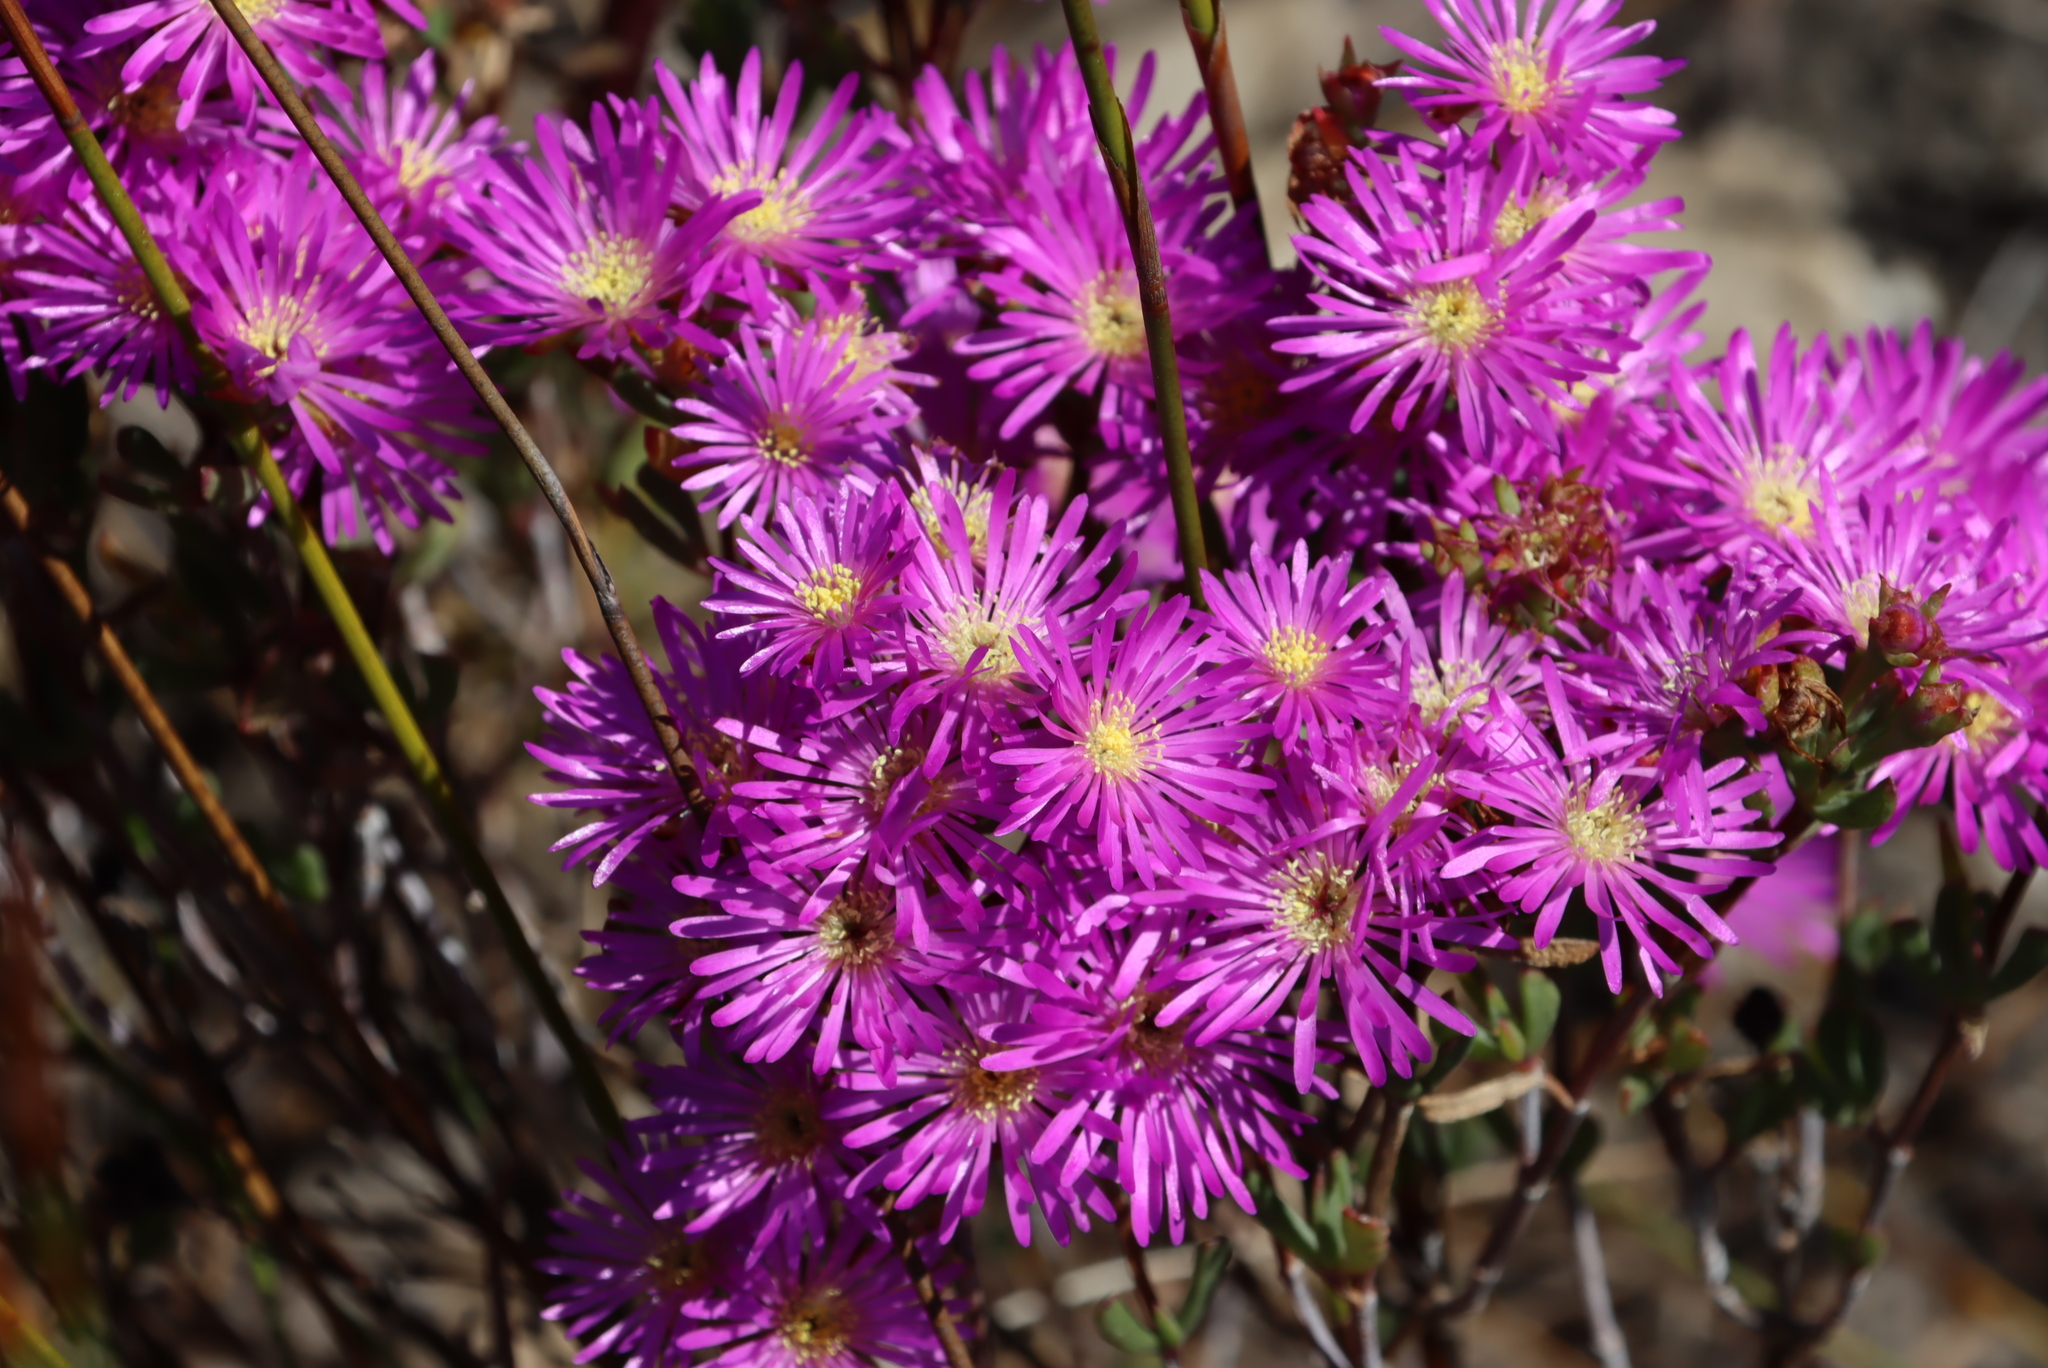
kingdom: Plantae
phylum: Tracheophyta
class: Magnoliopsida
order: Caryophyllales
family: Aizoaceae
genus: Lampranthus
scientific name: Lampranthus glomeratus
